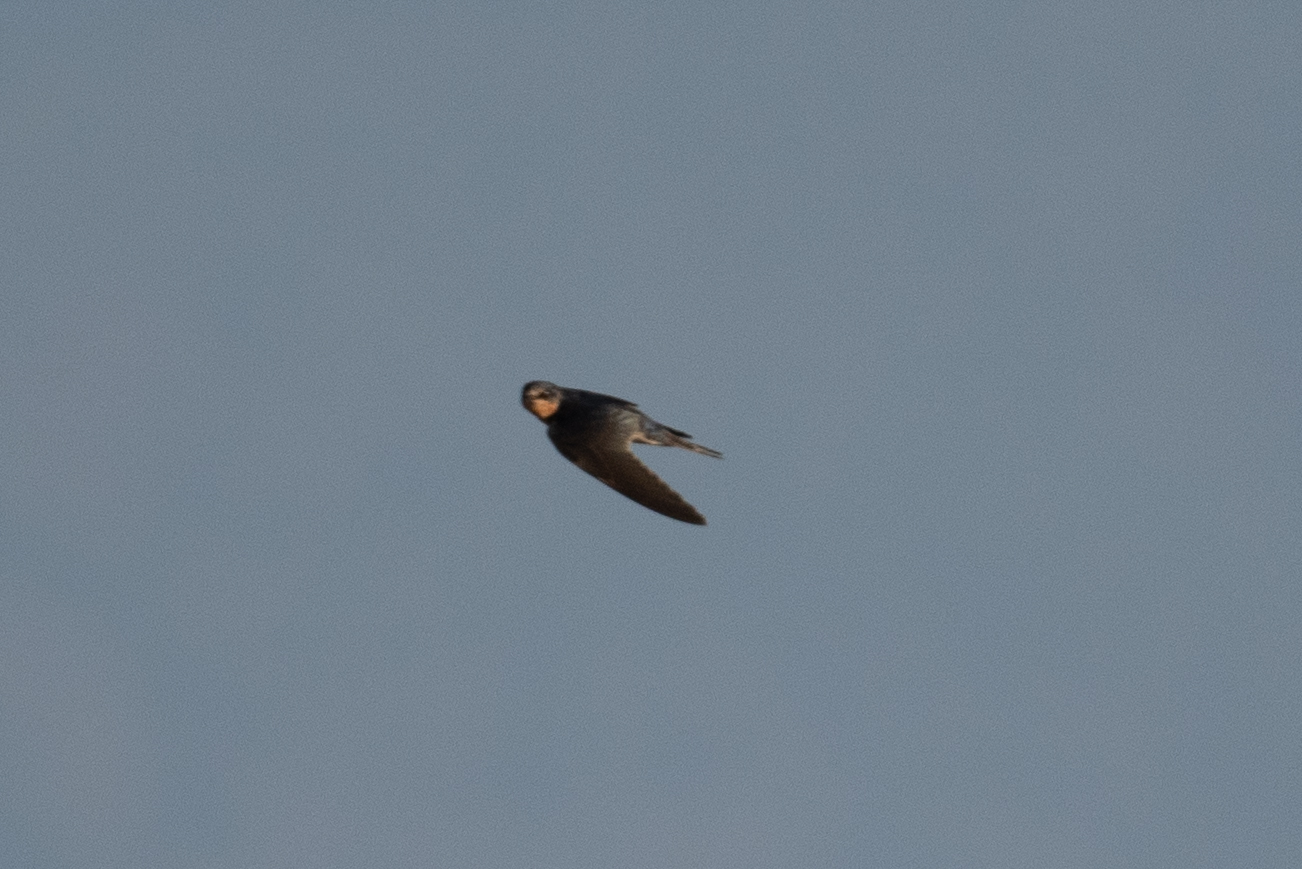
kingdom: Animalia
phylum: Chordata
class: Aves
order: Passeriformes
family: Hirundinidae
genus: Hirundo
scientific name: Hirundo rustica
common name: Barn swallow
